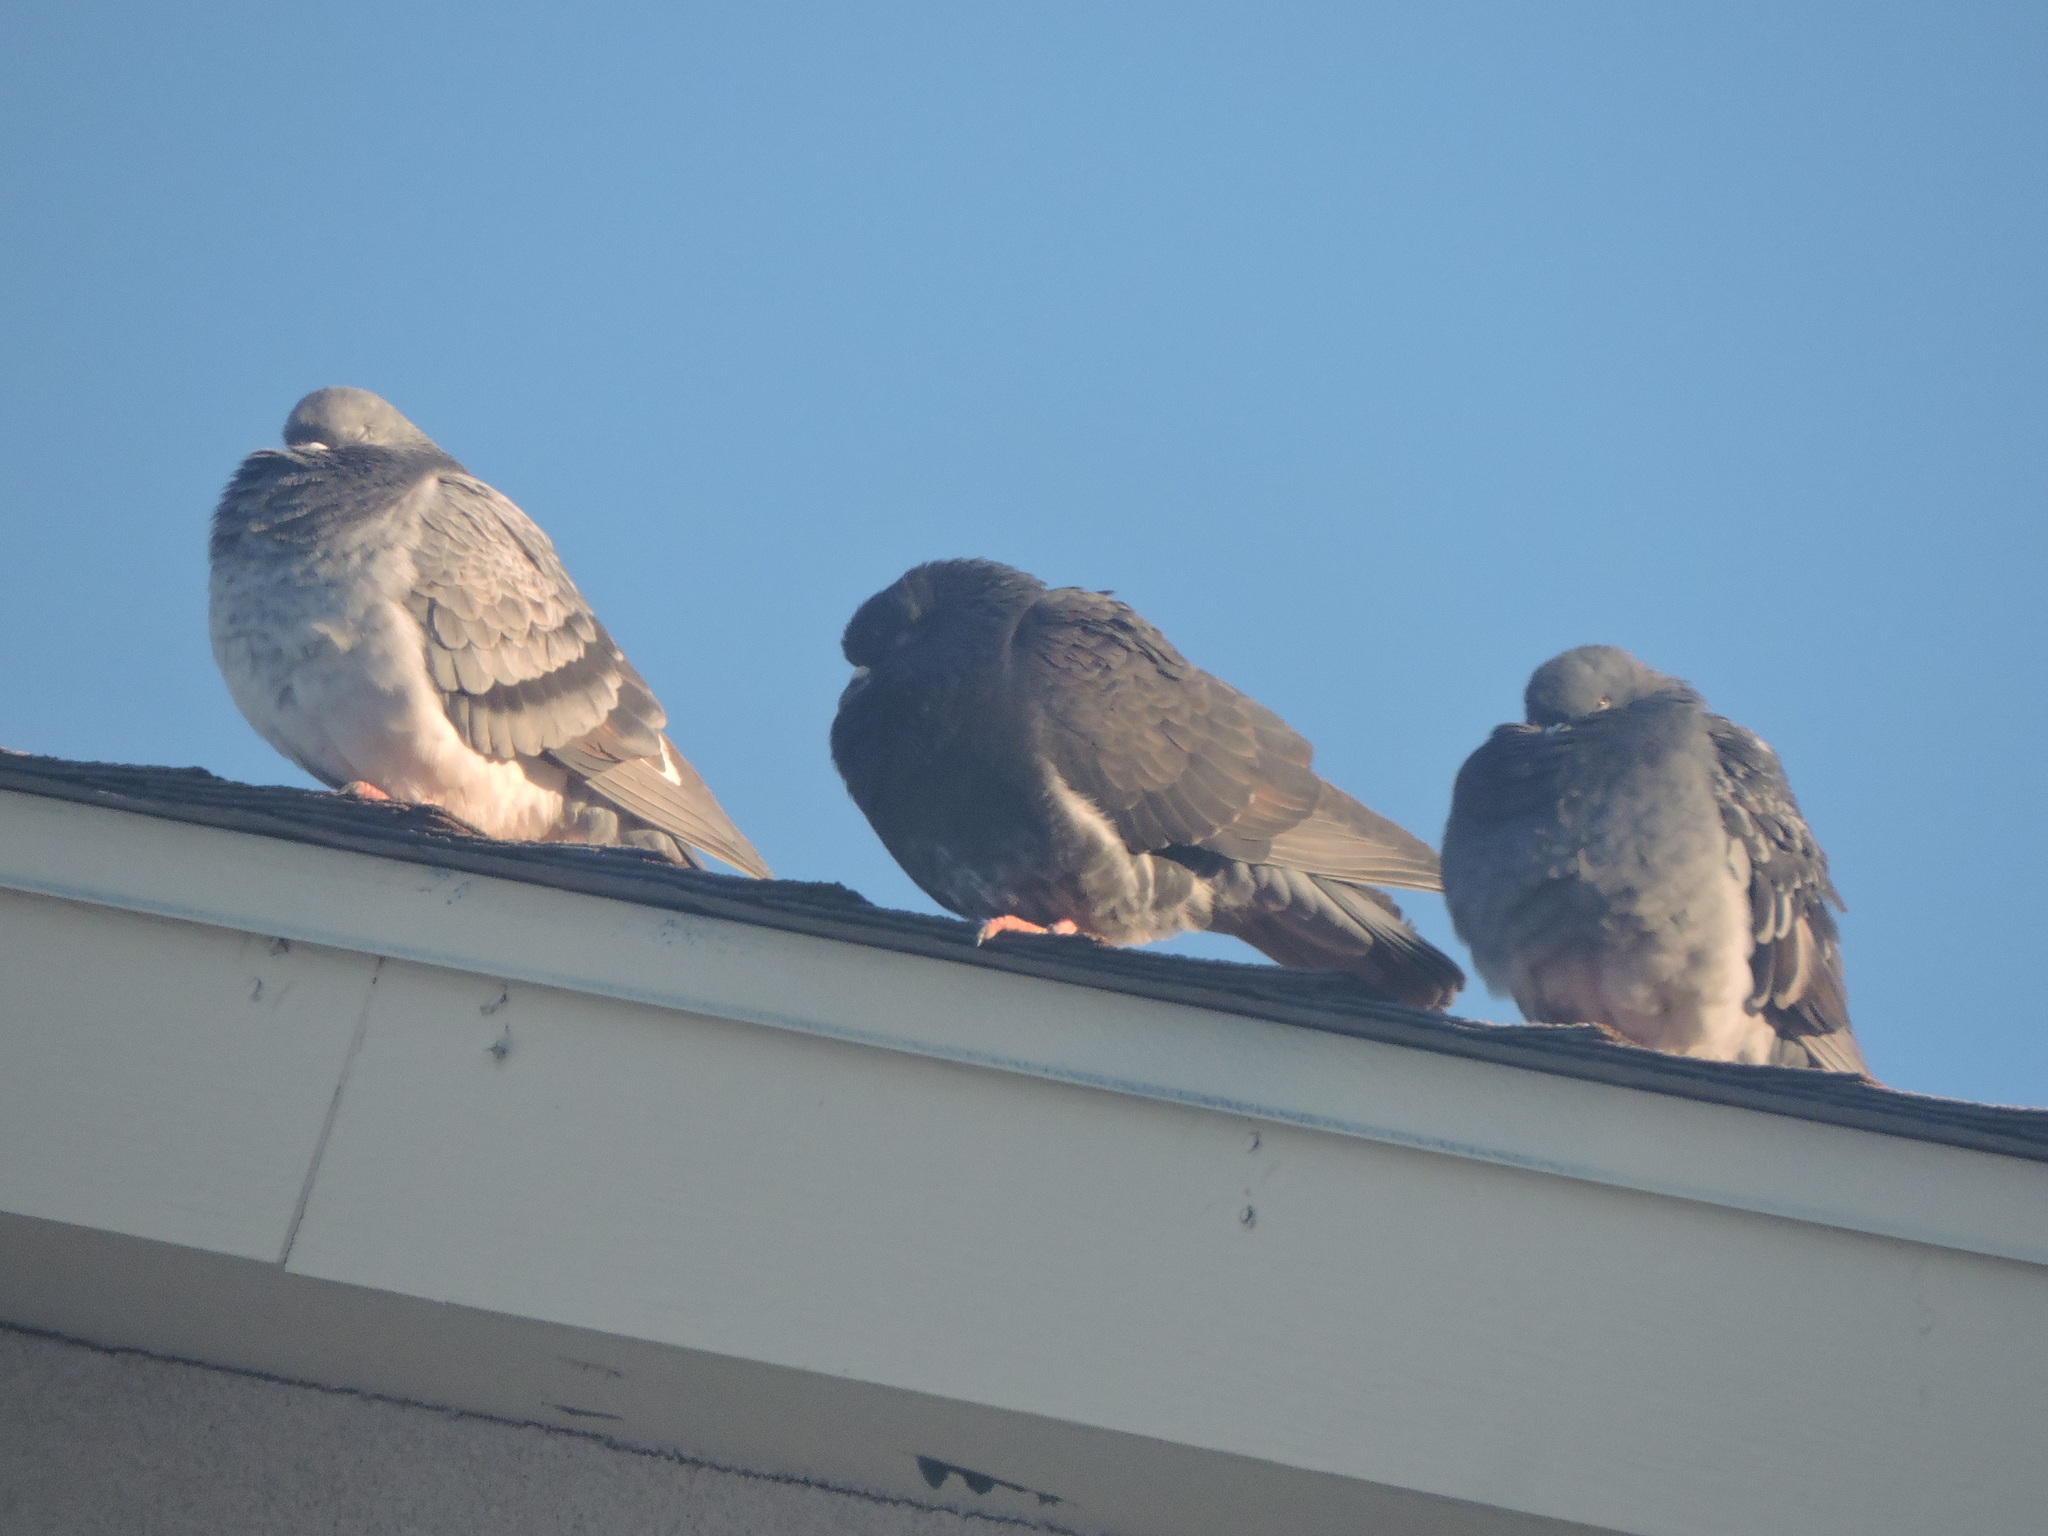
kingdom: Animalia
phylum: Chordata
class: Aves
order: Columbiformes
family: Columbidae
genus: Columba
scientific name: Columba livia
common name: Rock pigeon
